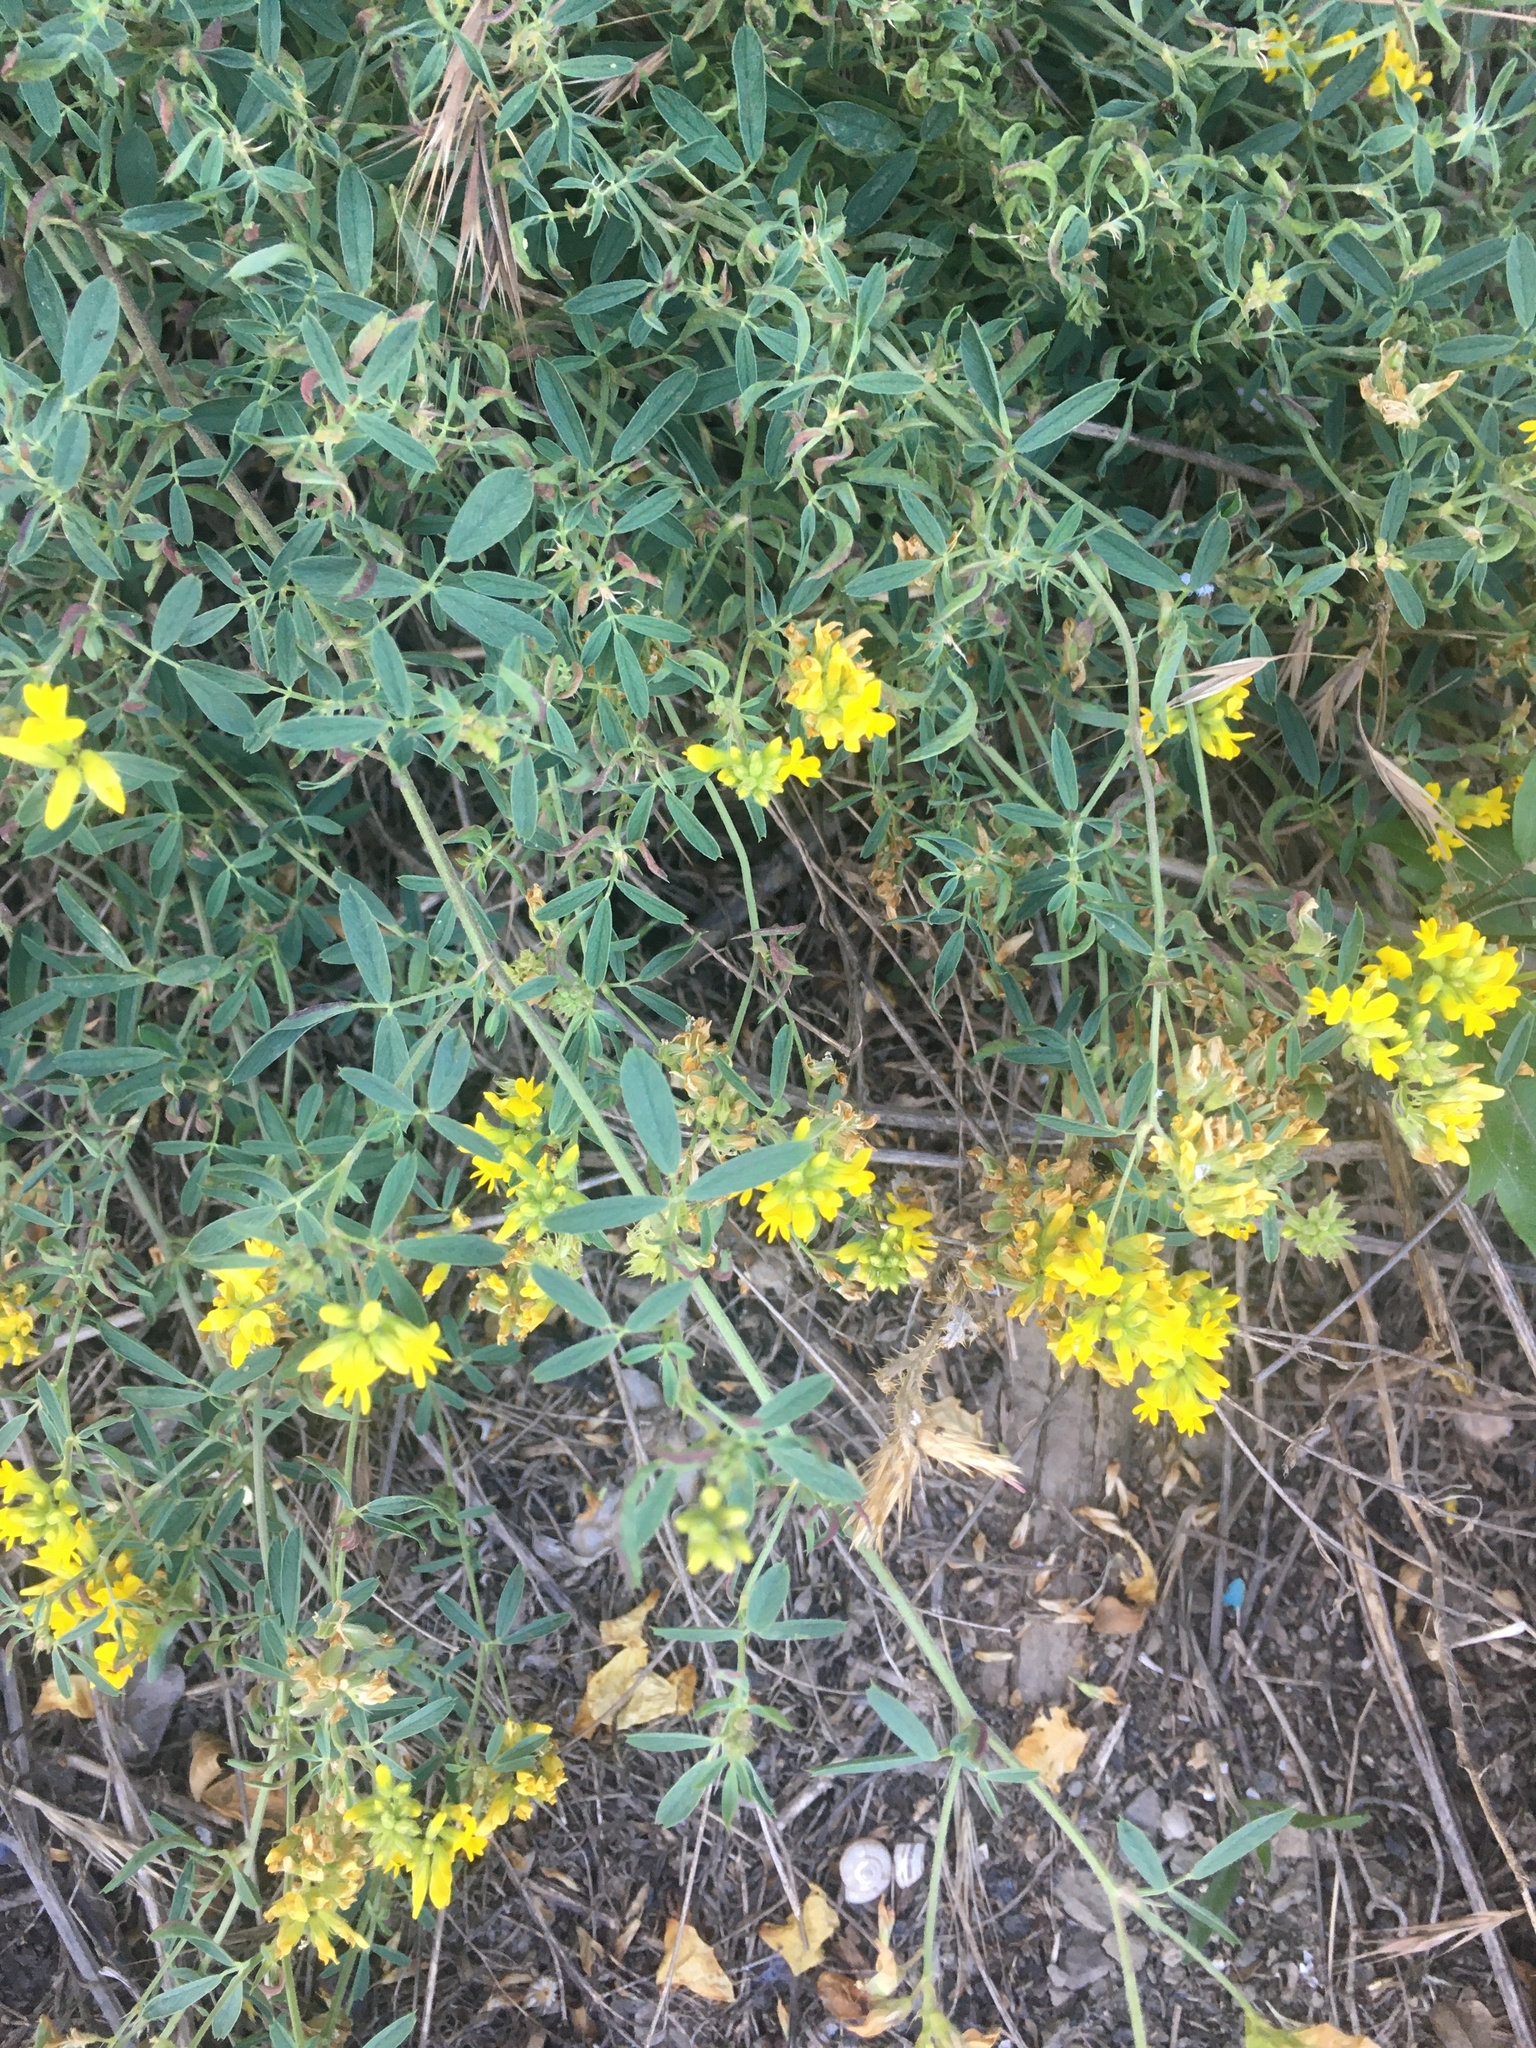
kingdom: Plantae
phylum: Tracheophyta
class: Magnoliopsida
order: Fabales
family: Fabaceae
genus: Medicago
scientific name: Medicago falcata
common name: Sickle medick
